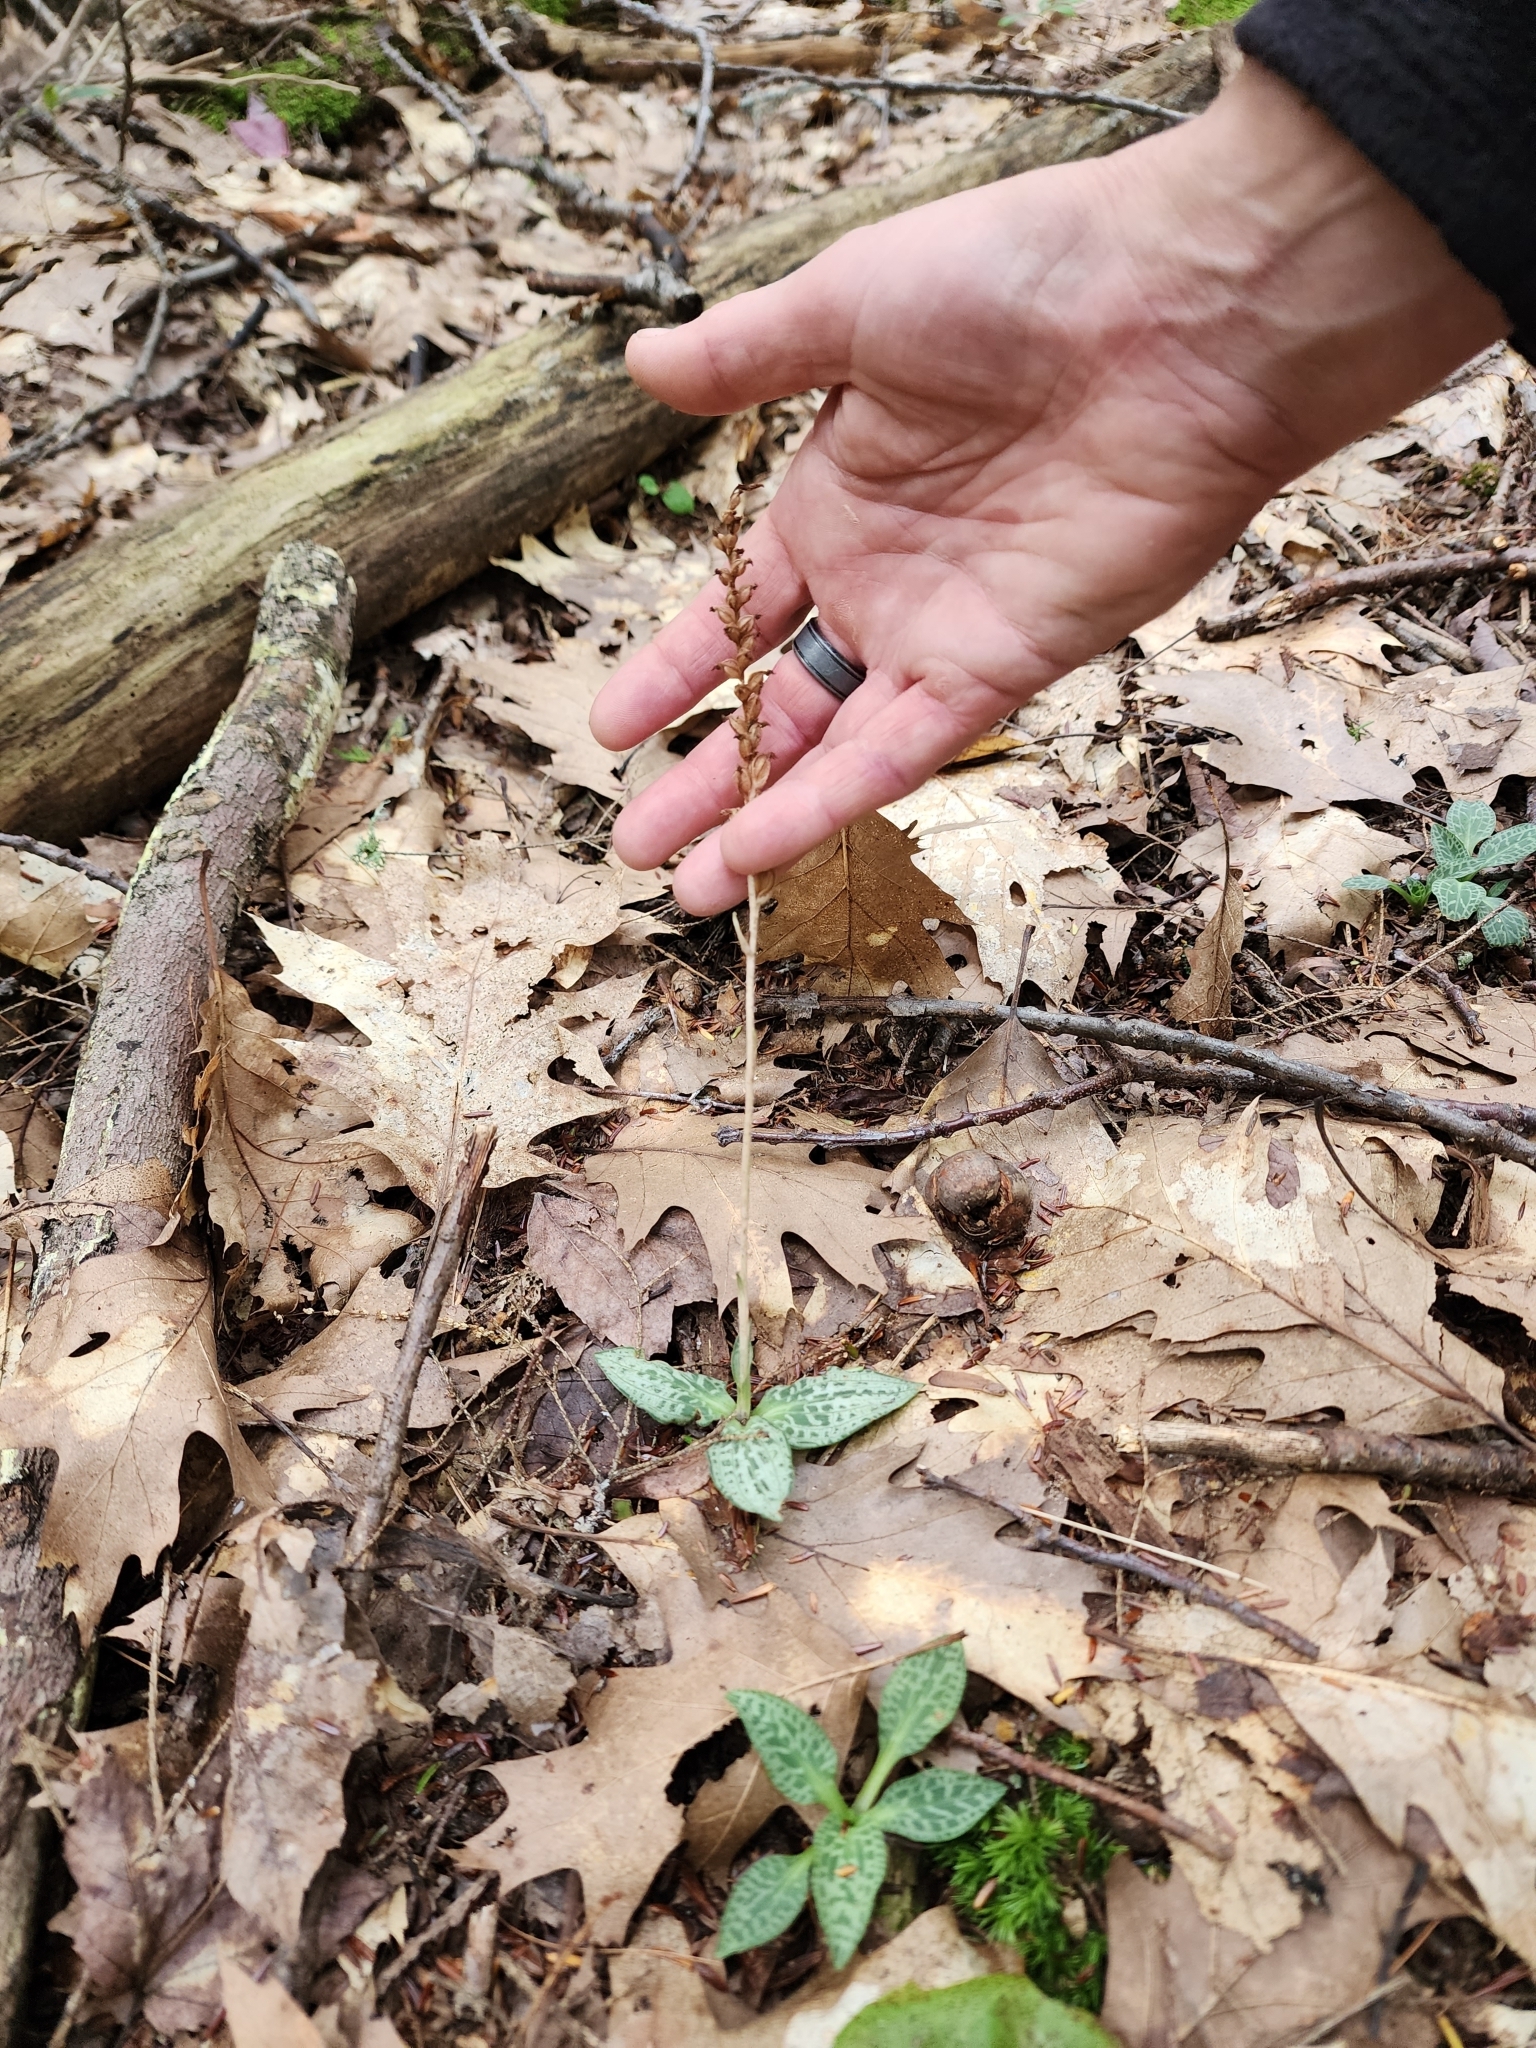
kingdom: Plantae
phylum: Tracheophyta
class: Liliopsida
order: Asparagales
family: Orchidaceae
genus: Goodyera
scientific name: Goodyera tesselata
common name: Checkered rattlesnake-plantain
